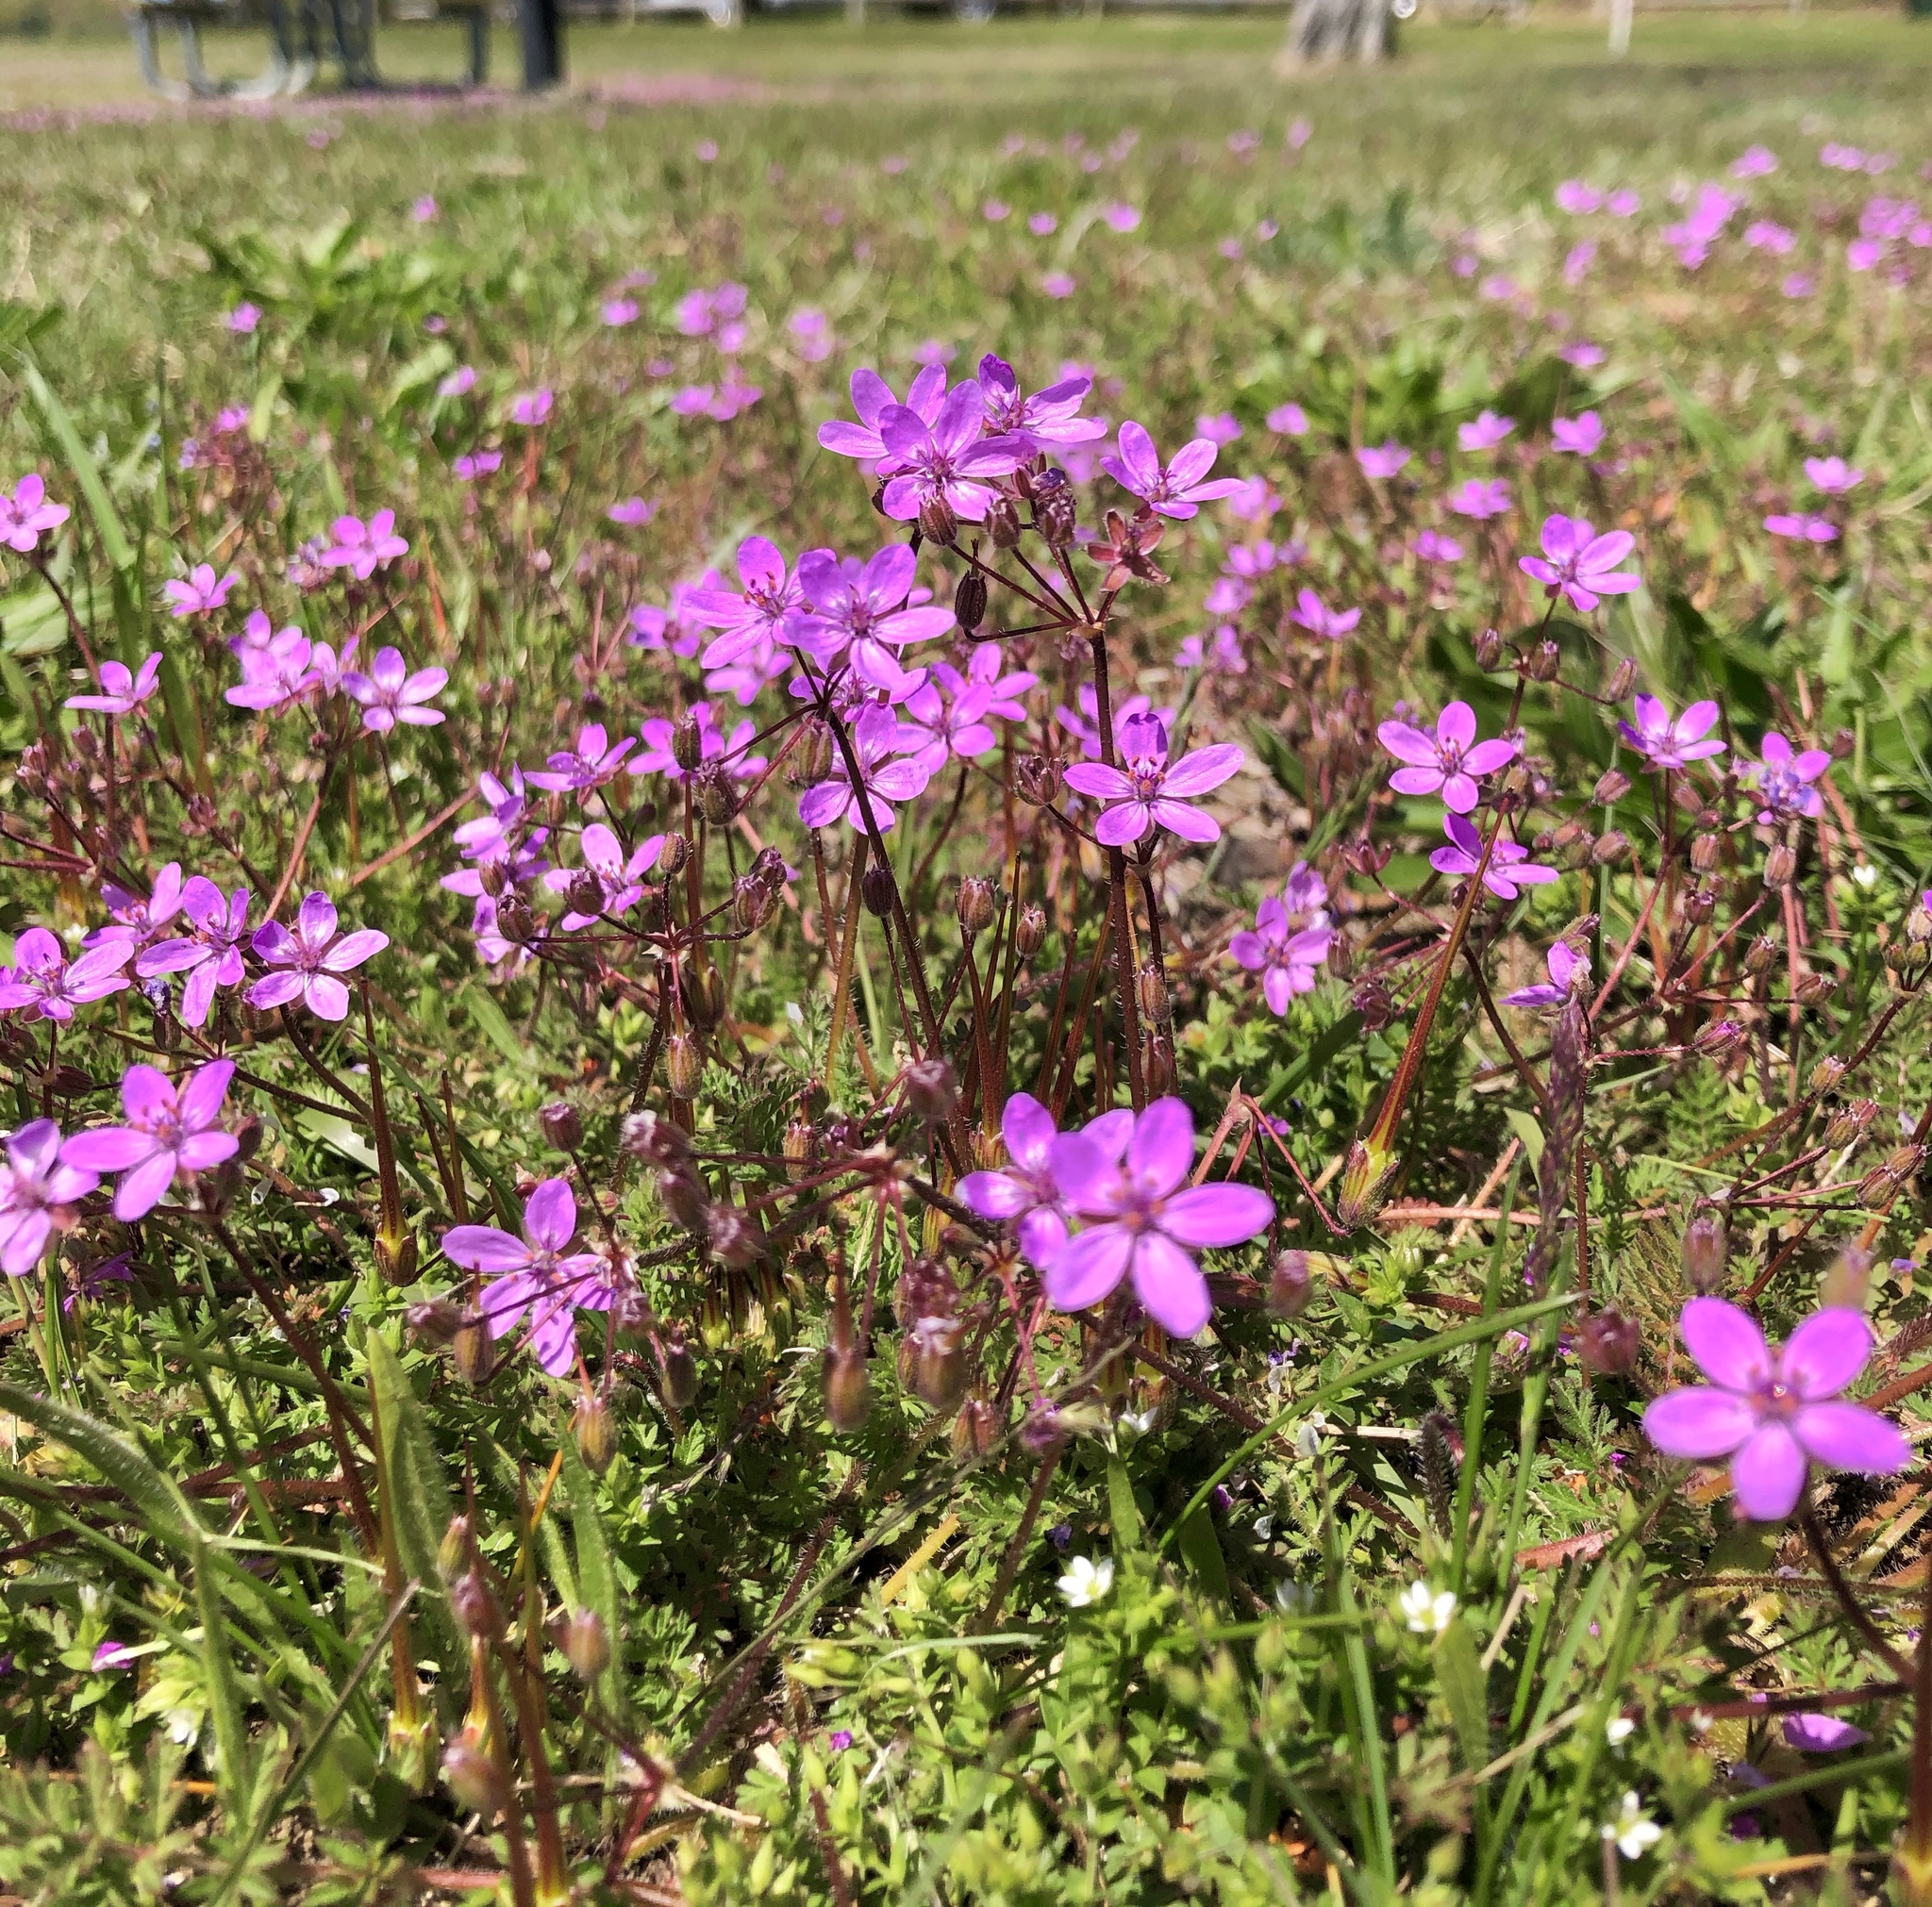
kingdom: Plantae
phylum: Tracheophyta
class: Magnoliopsida
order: Geraniales
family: Geraniaceae
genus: Erodium
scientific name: Erodium cicutarium
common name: Common stork's-bill
